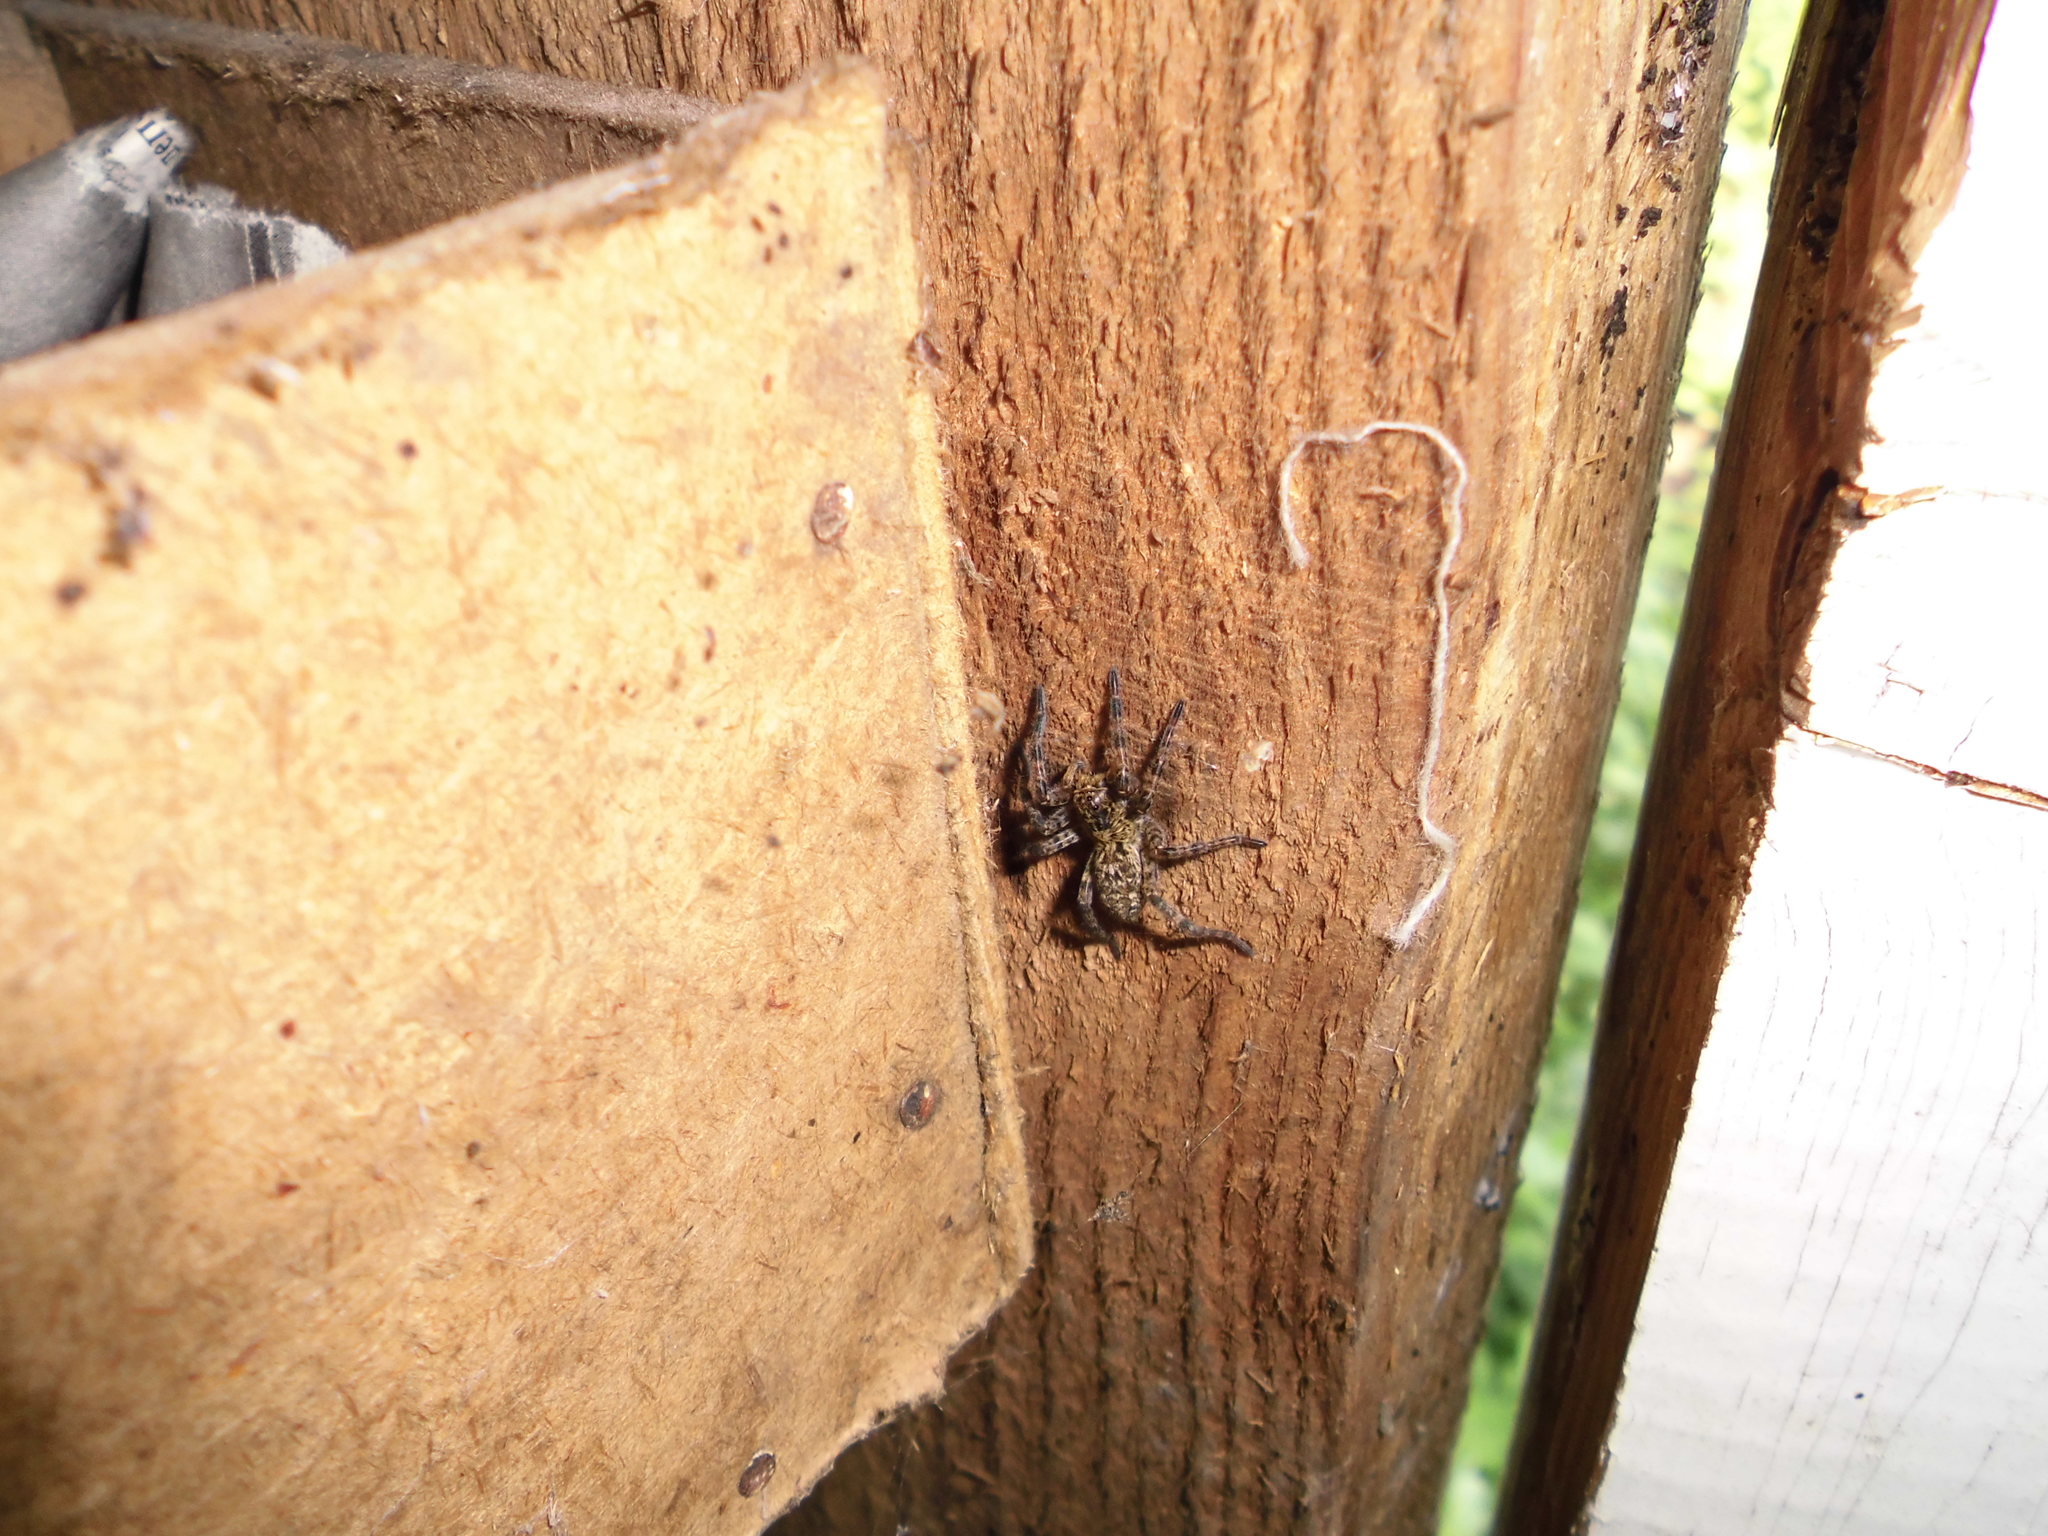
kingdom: Animalia
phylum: Arthropoda
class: Arachnida
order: Araneae
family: Lycosidae
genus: Lycosa
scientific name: Lycosa singoriensis
